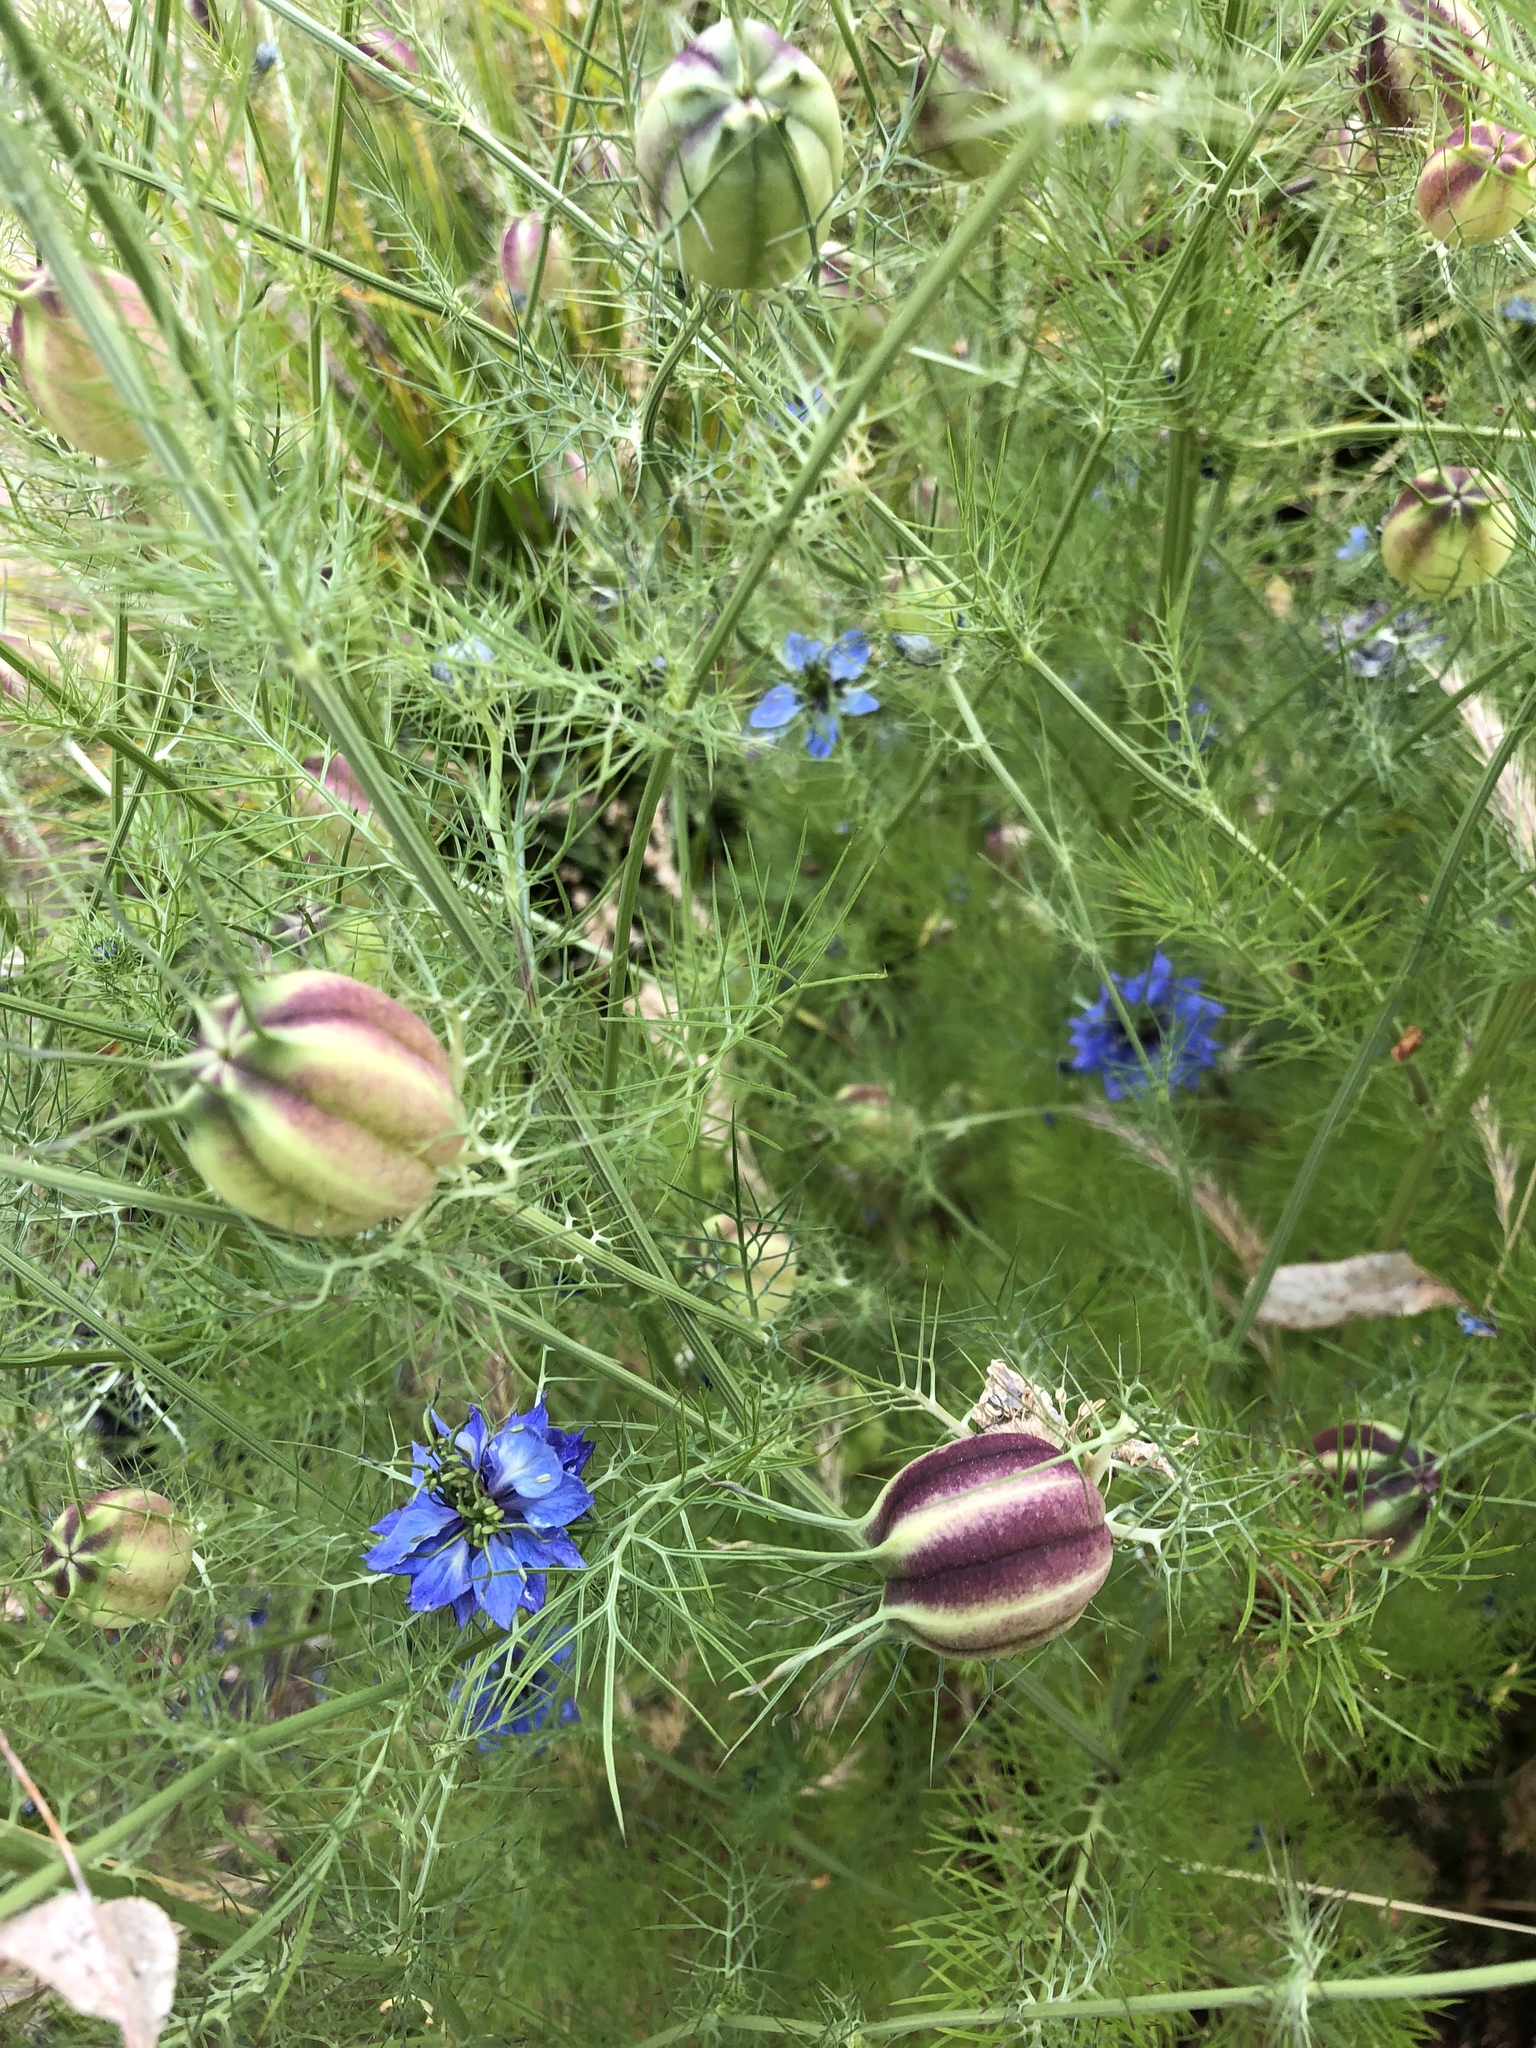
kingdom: Plantae
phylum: Tracheophyta
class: Magnoliopsida
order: Ranunculales
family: Ranunculaceae
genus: Nigella
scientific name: Nigella damascena
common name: Love-in-a-mist
